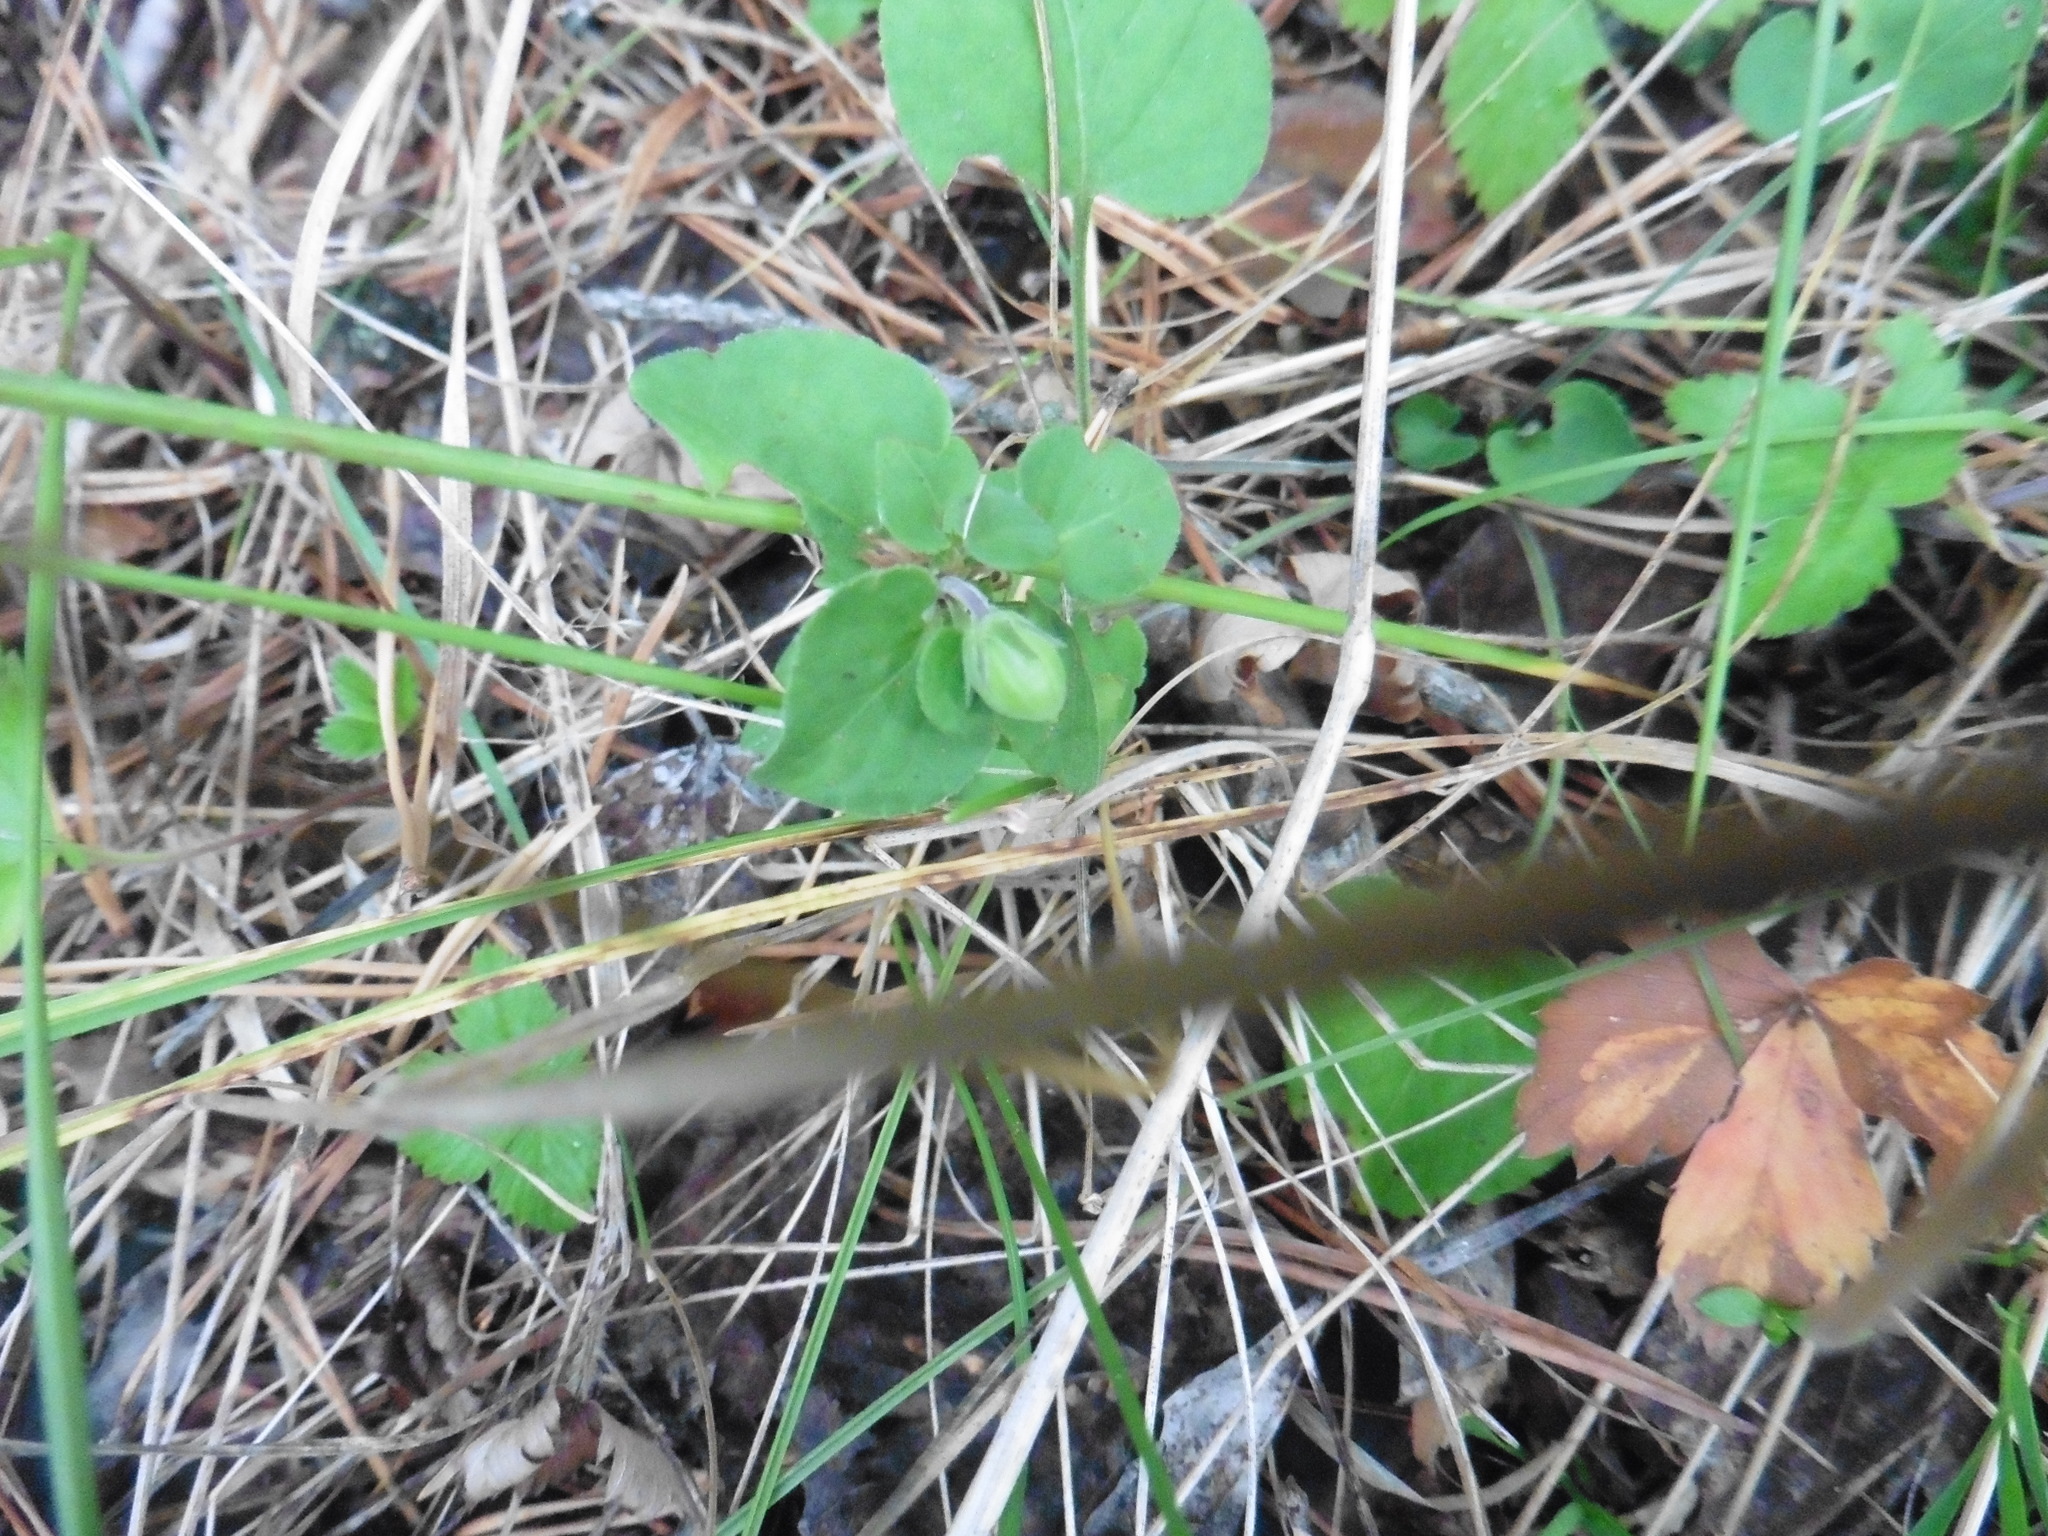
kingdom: Plantae
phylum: Tracheophyta
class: Magnoliopsida
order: Malpighiales
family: Violaceae
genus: Viola
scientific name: Viola rupestris
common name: Teesdale violet
